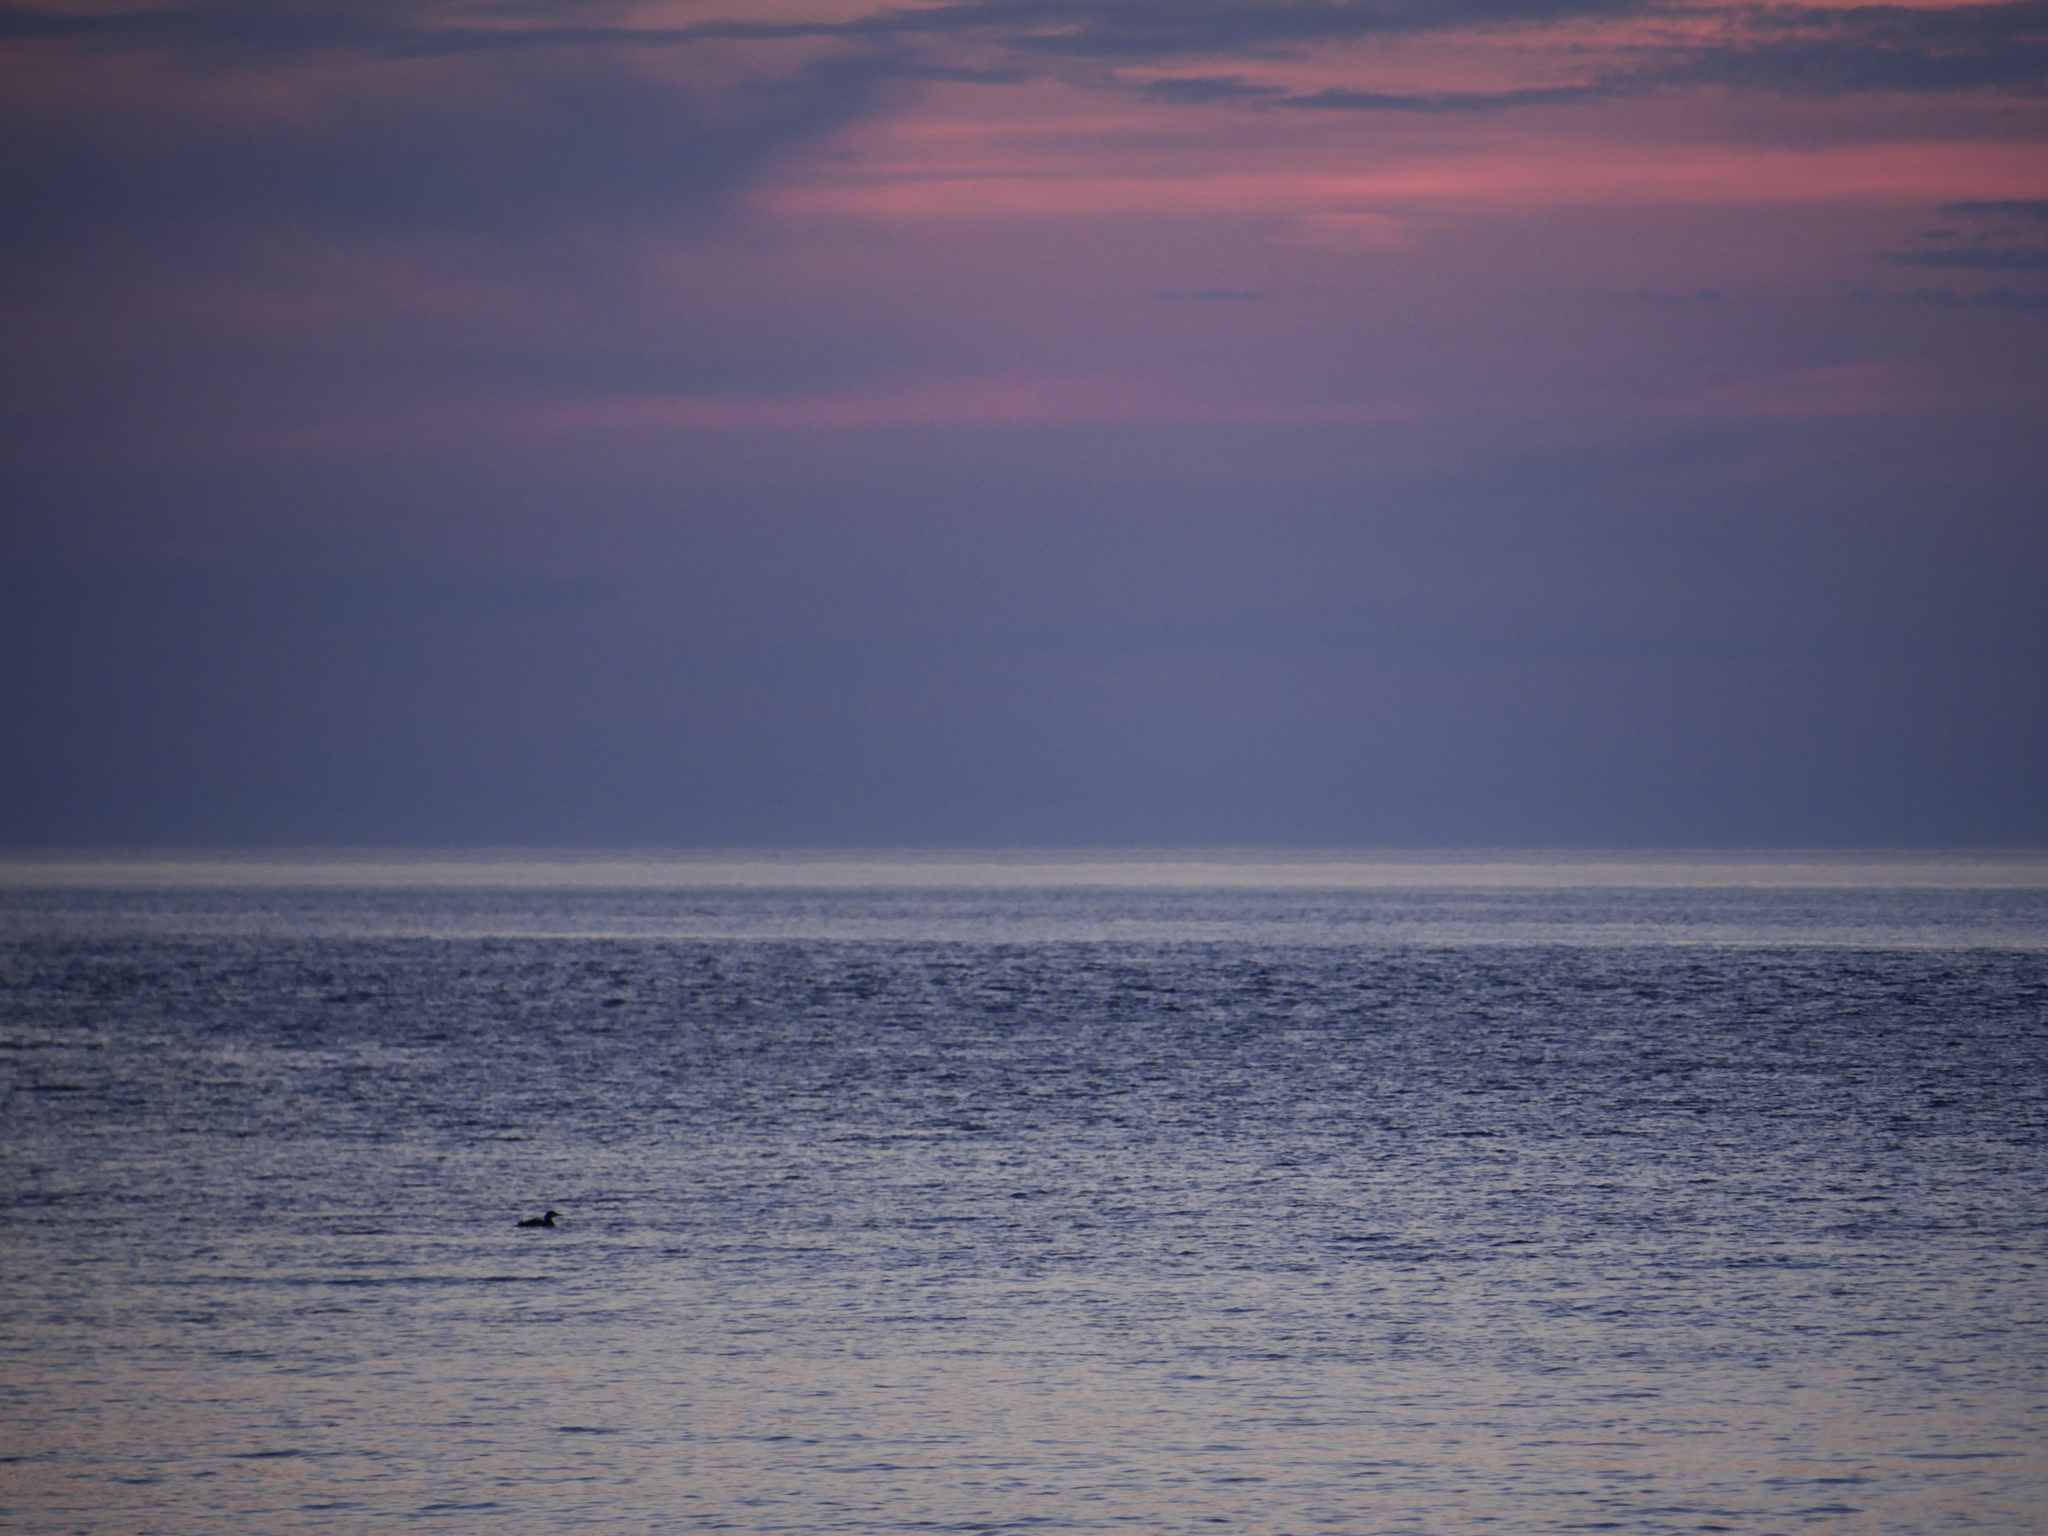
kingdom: Animalia
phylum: Chordata
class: Aves
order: Gaviiformes
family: Gaviidae
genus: Gavia
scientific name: Gavia immer
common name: Common loon
